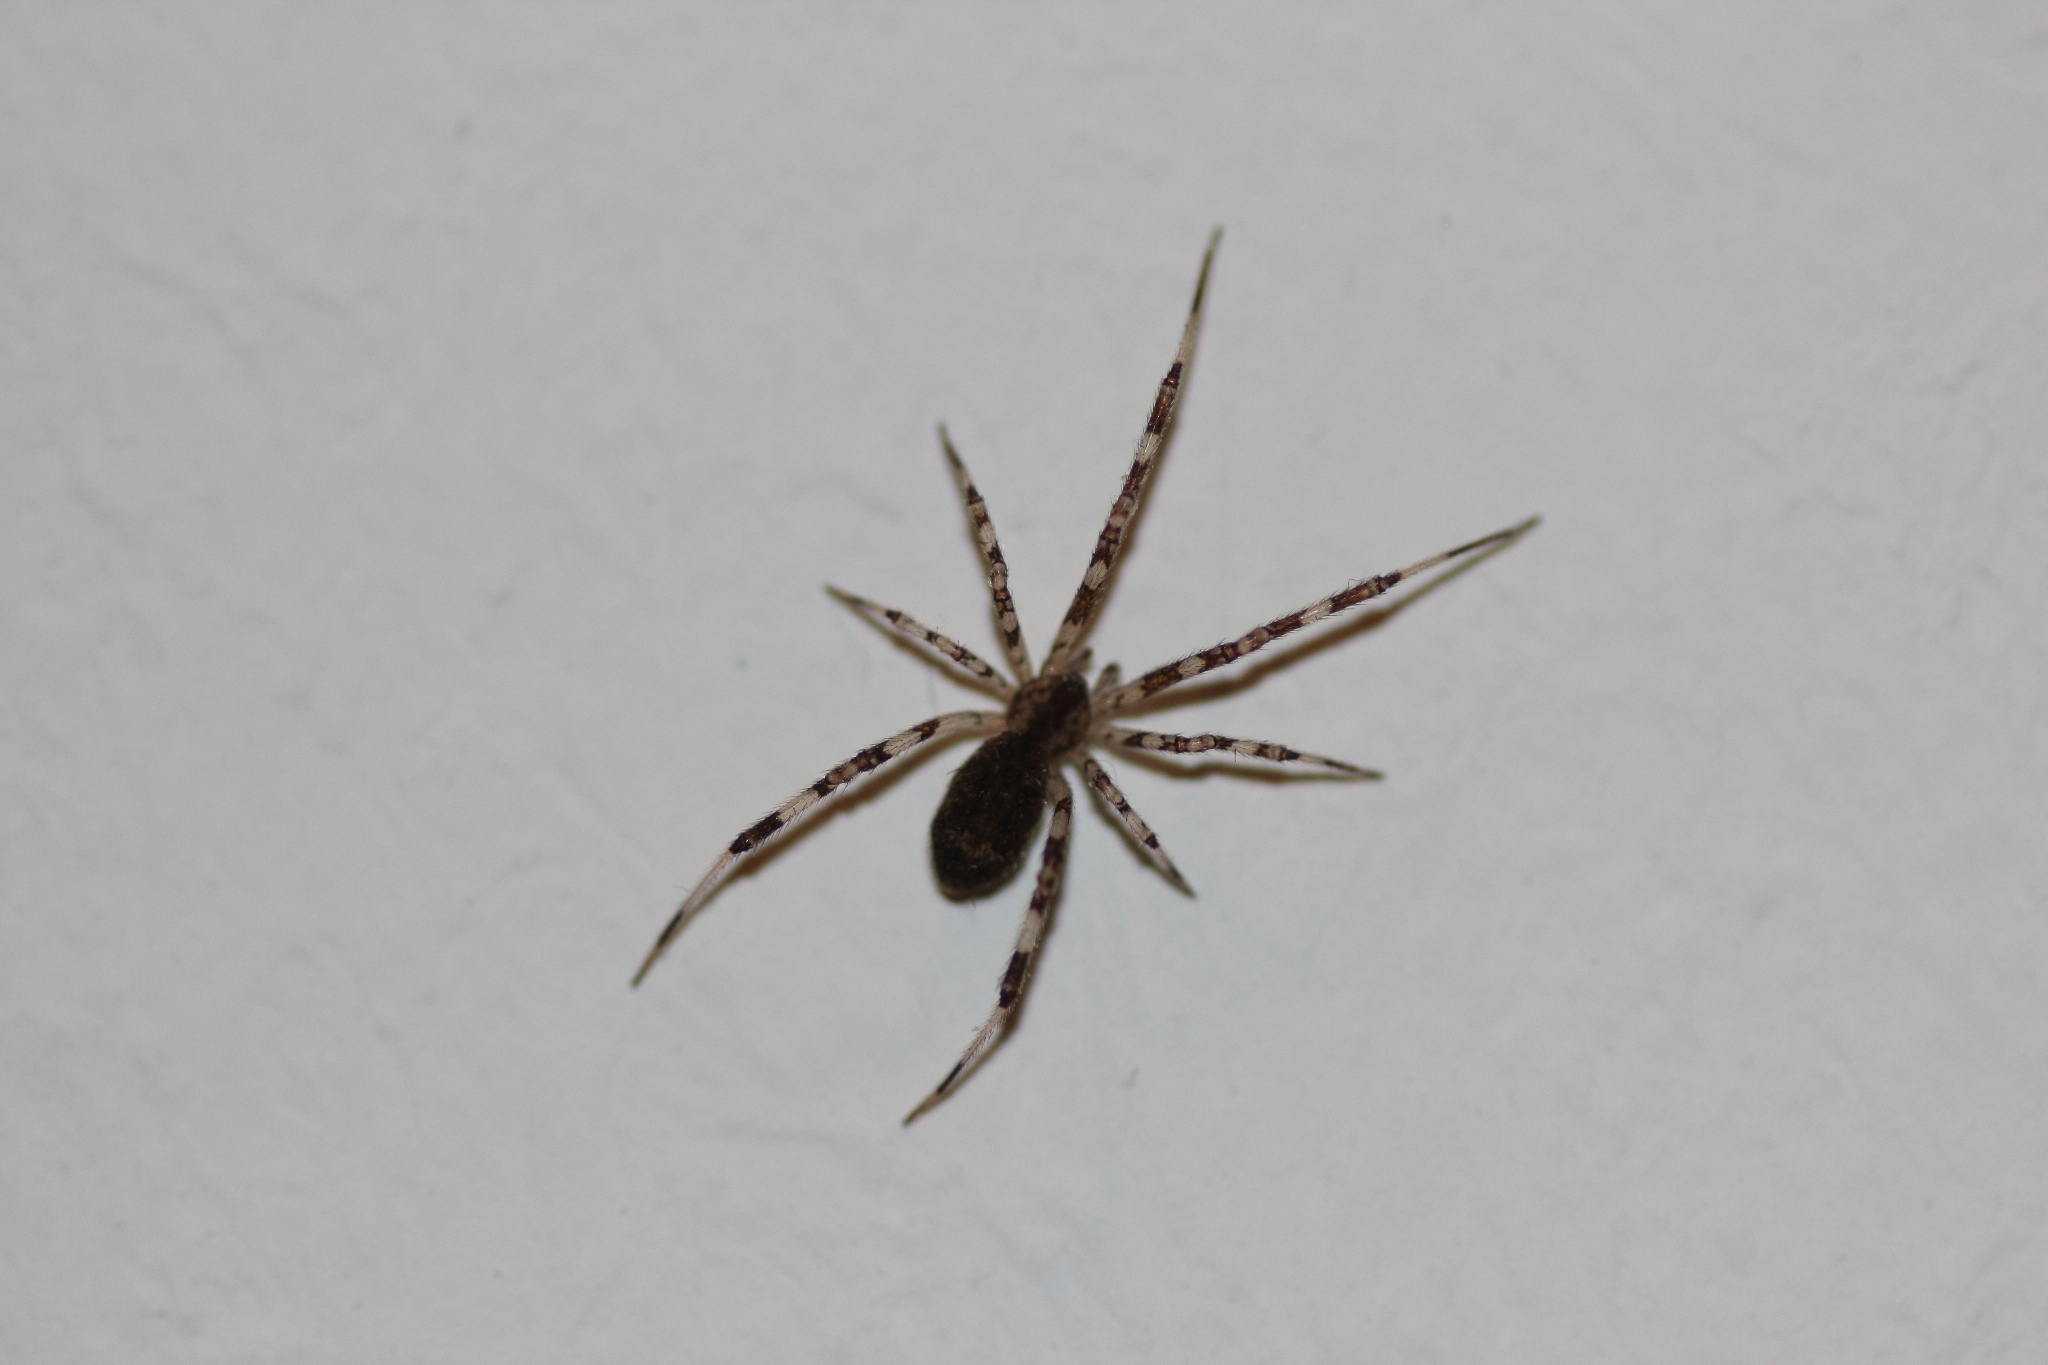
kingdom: Animalia
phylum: Arthropoda
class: Arachnida
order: Araneae
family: Theridiidae
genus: Episinus
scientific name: Episinus maculipes
